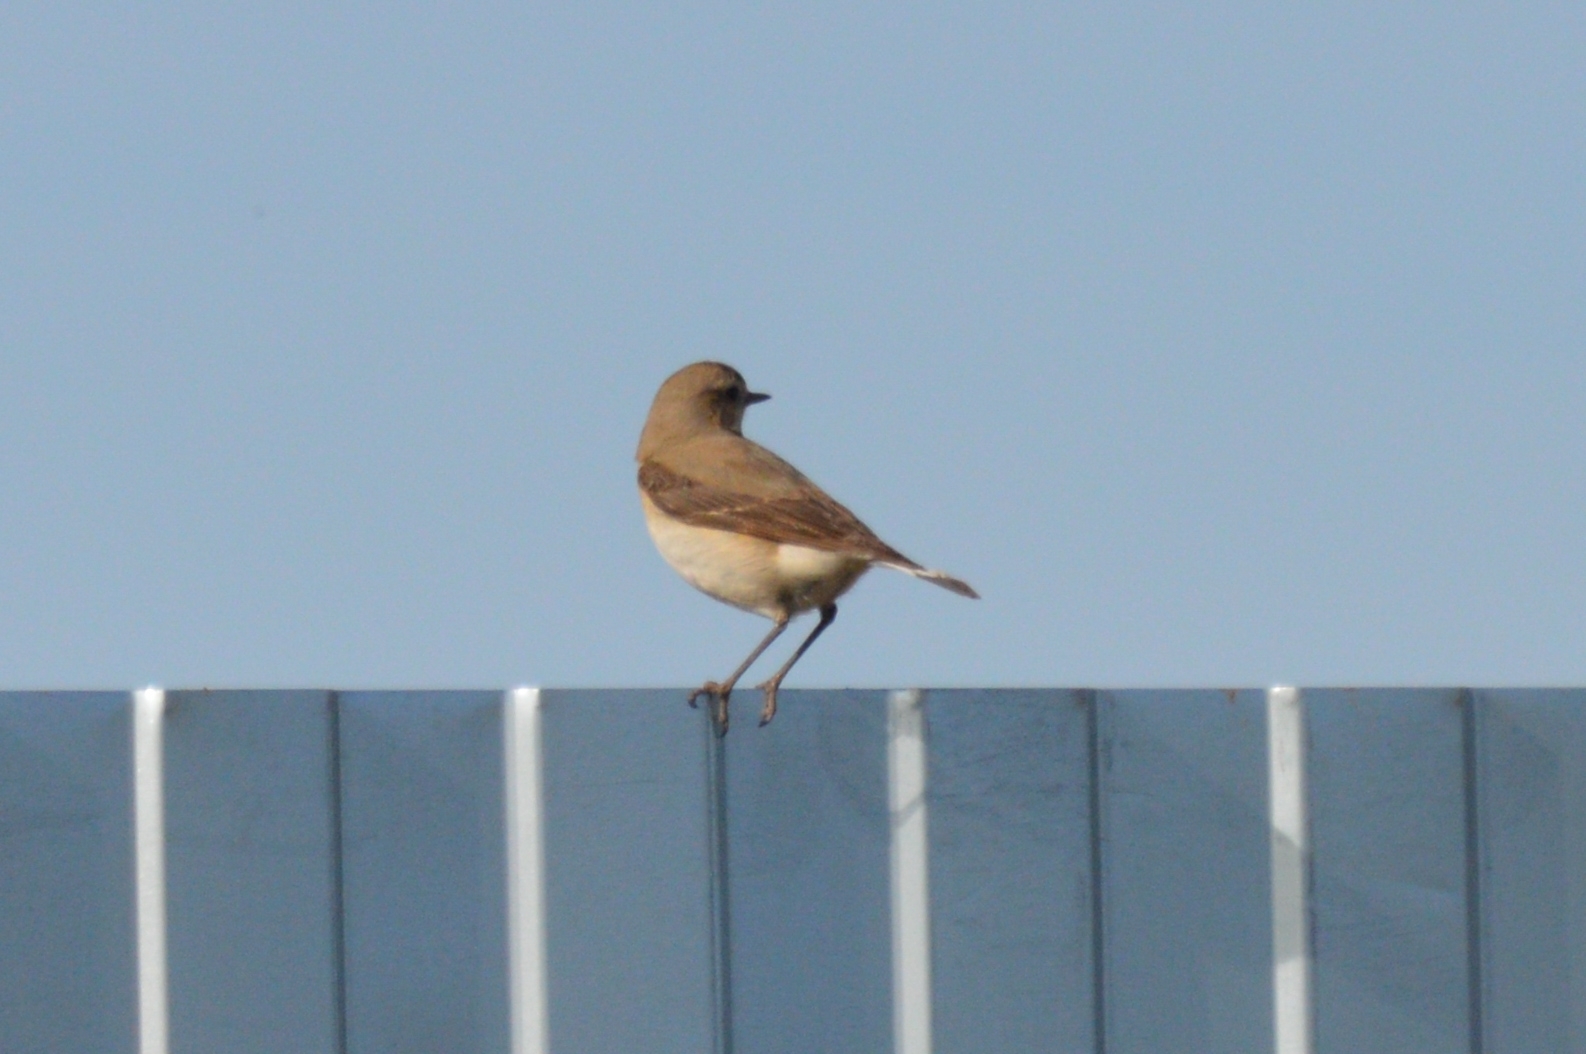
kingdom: Animalia
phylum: Chordata
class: Aves
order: Passeriformes
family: Muscicapidae
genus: Oenanthe
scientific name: Oenanthe oenanthe
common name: Northern wheatear
